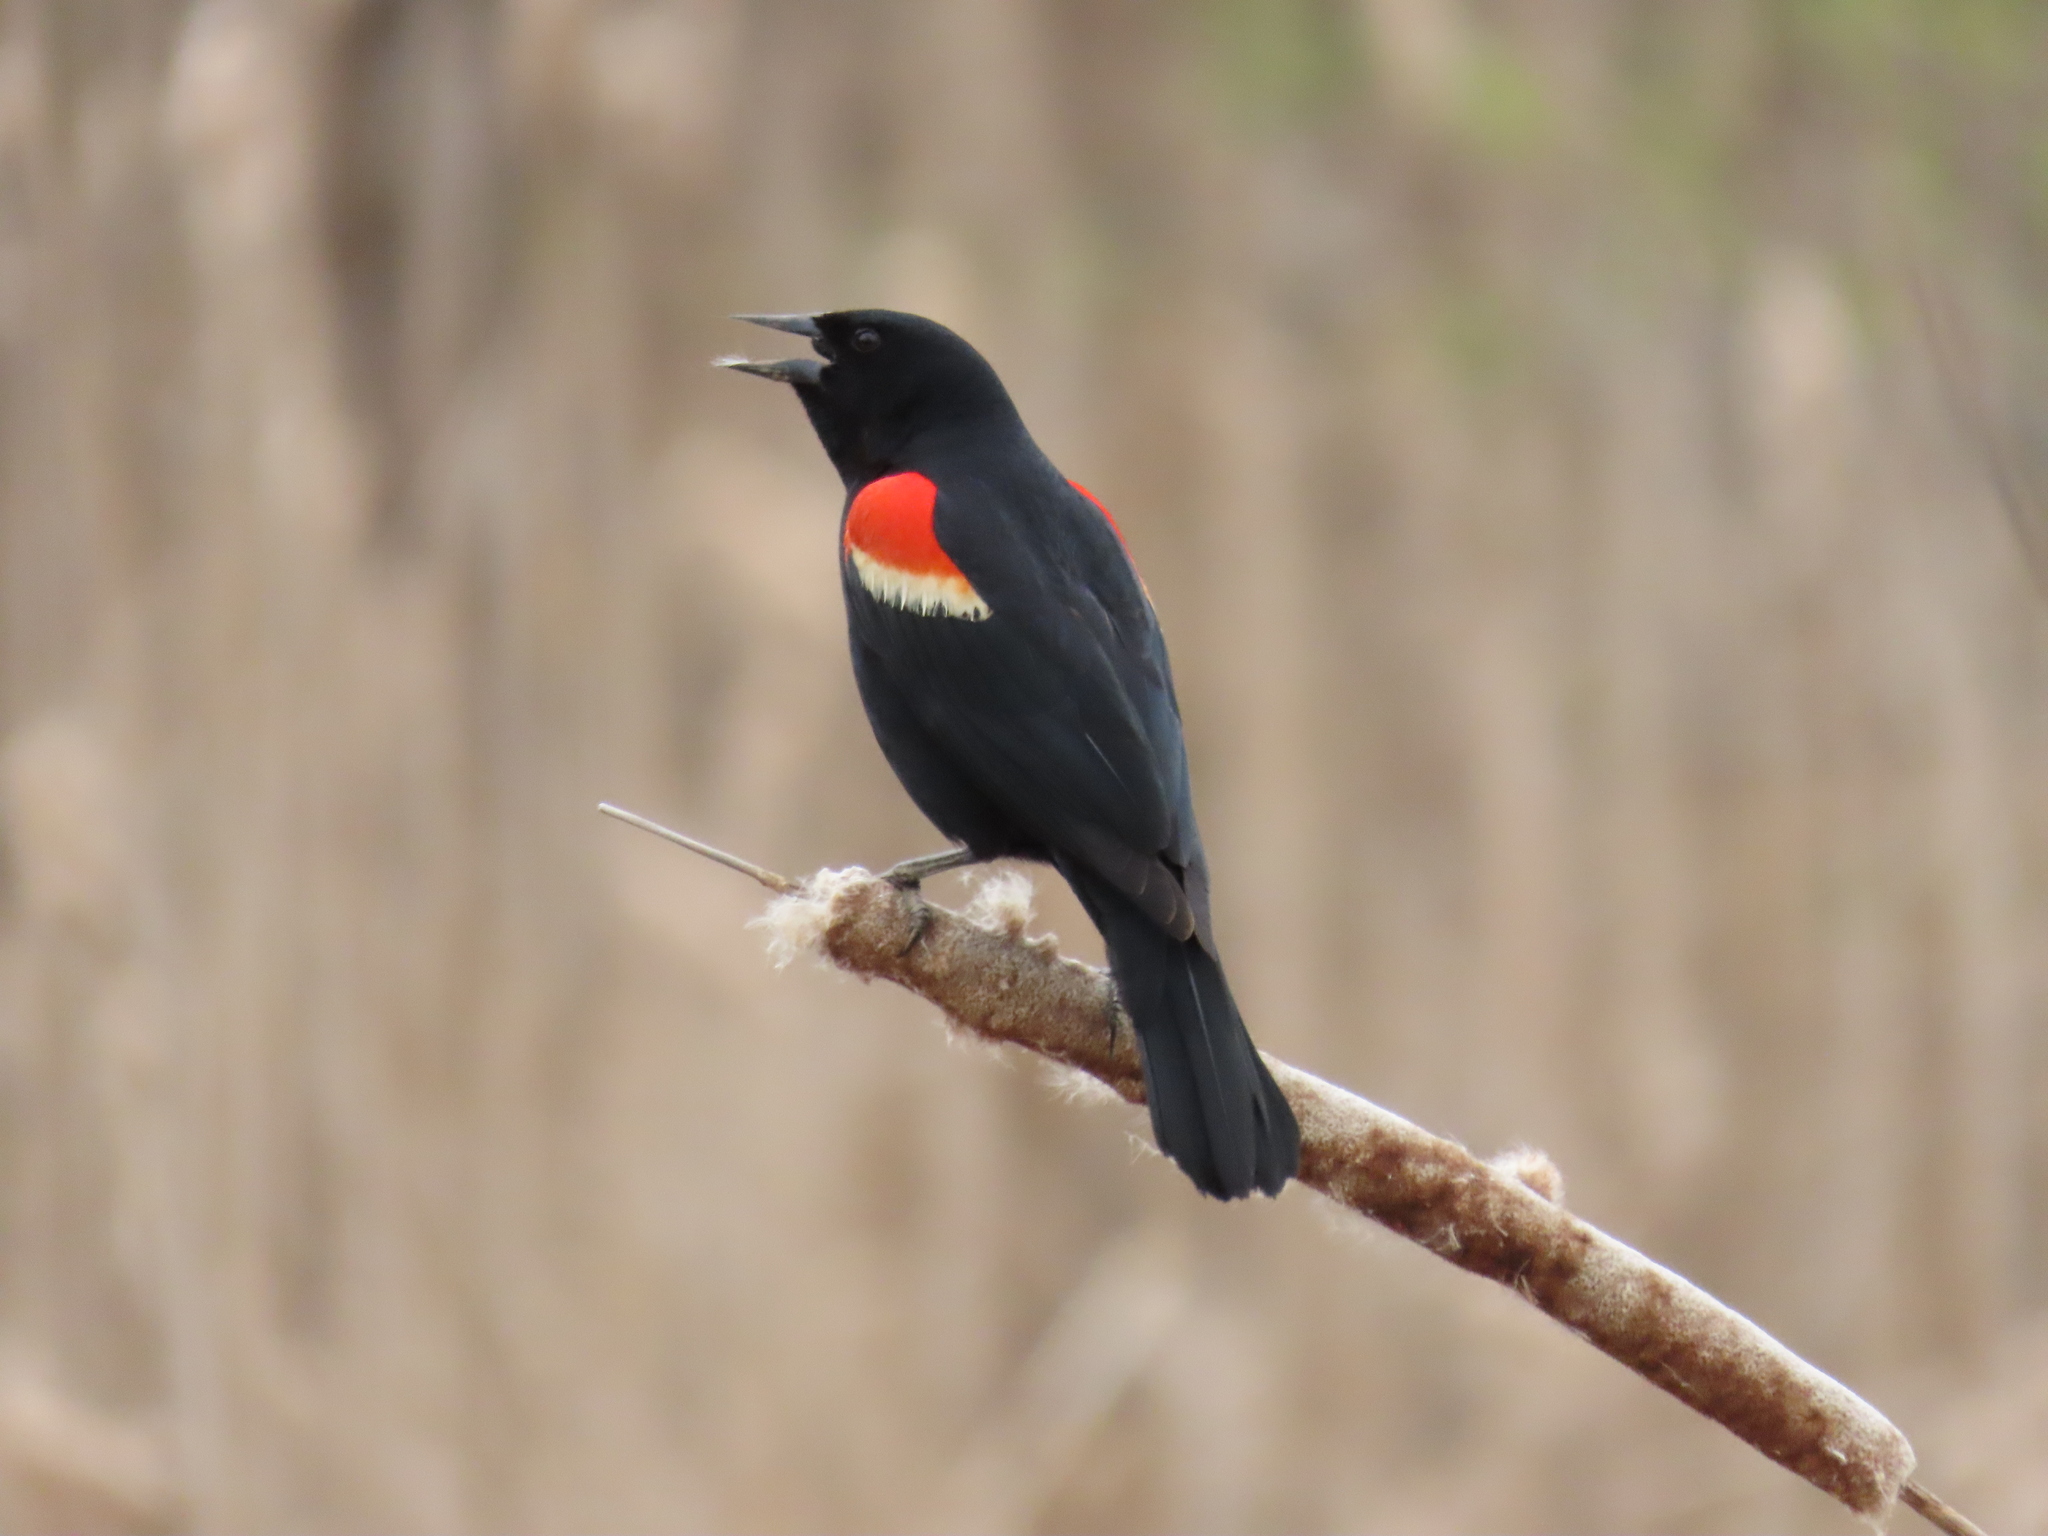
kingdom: Animalia
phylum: Chordata
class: Aves
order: Passeriformes
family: Icteridae
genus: Agelaius
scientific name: Agelaius phoeniceus
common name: Red-winged blackbird
